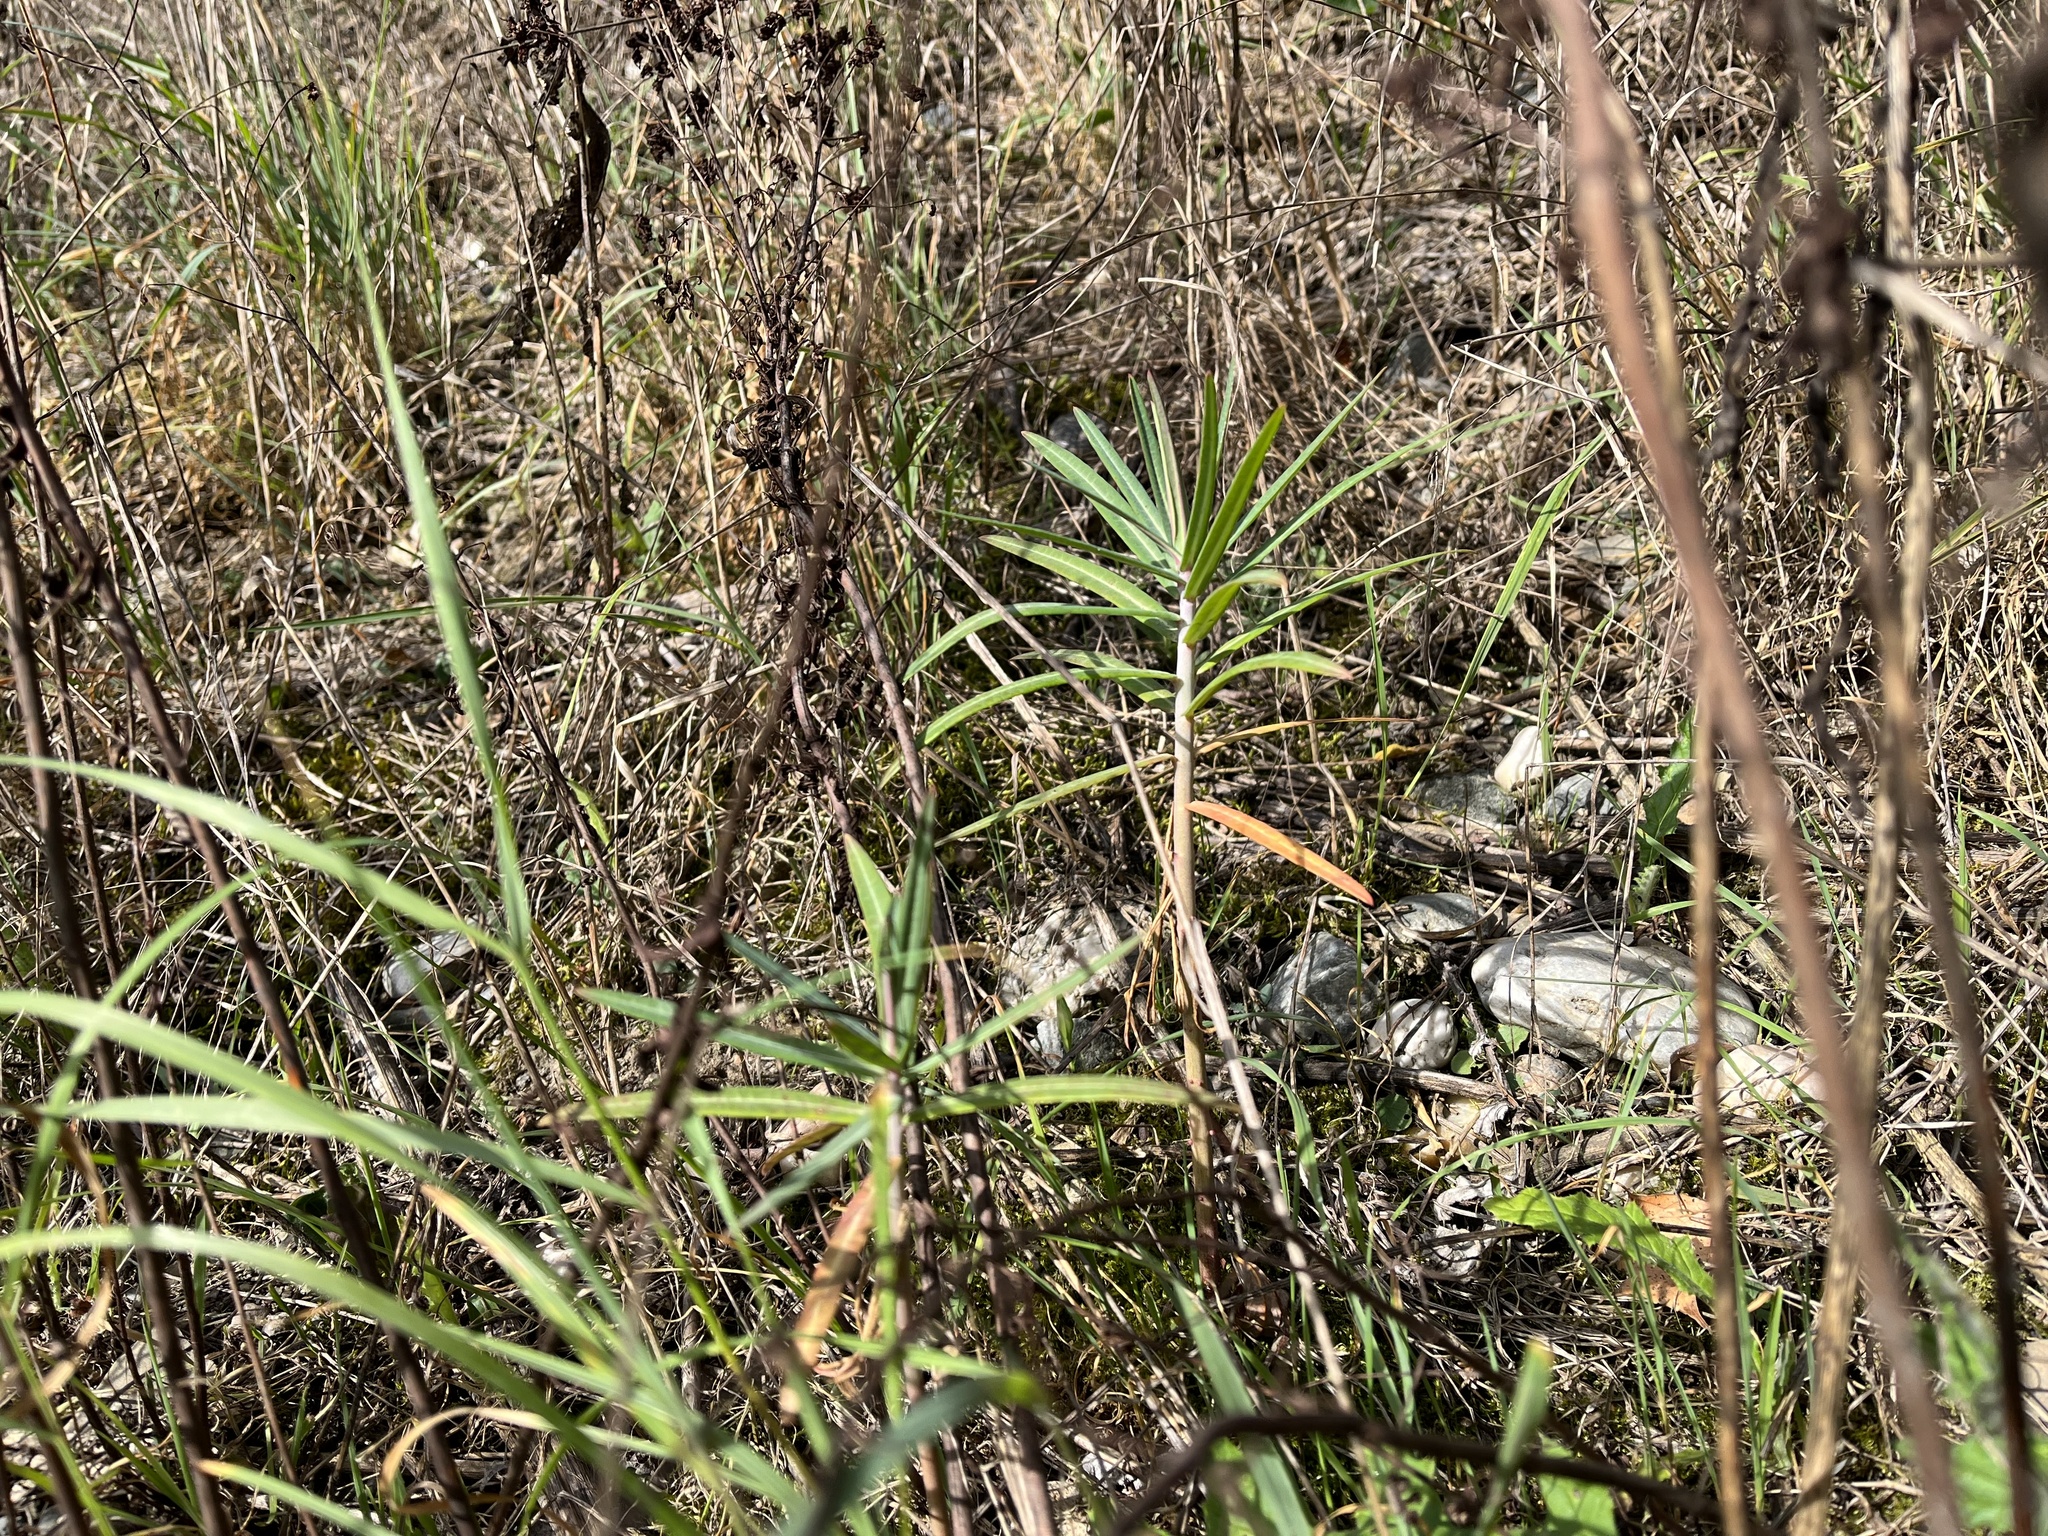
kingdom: Plantae
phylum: Tracheophyta
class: Magnoliopsida
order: Malpighiales
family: Euphorbiaceae
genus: Euphorbia
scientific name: Euphorbia lathyris
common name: Caper spurge
